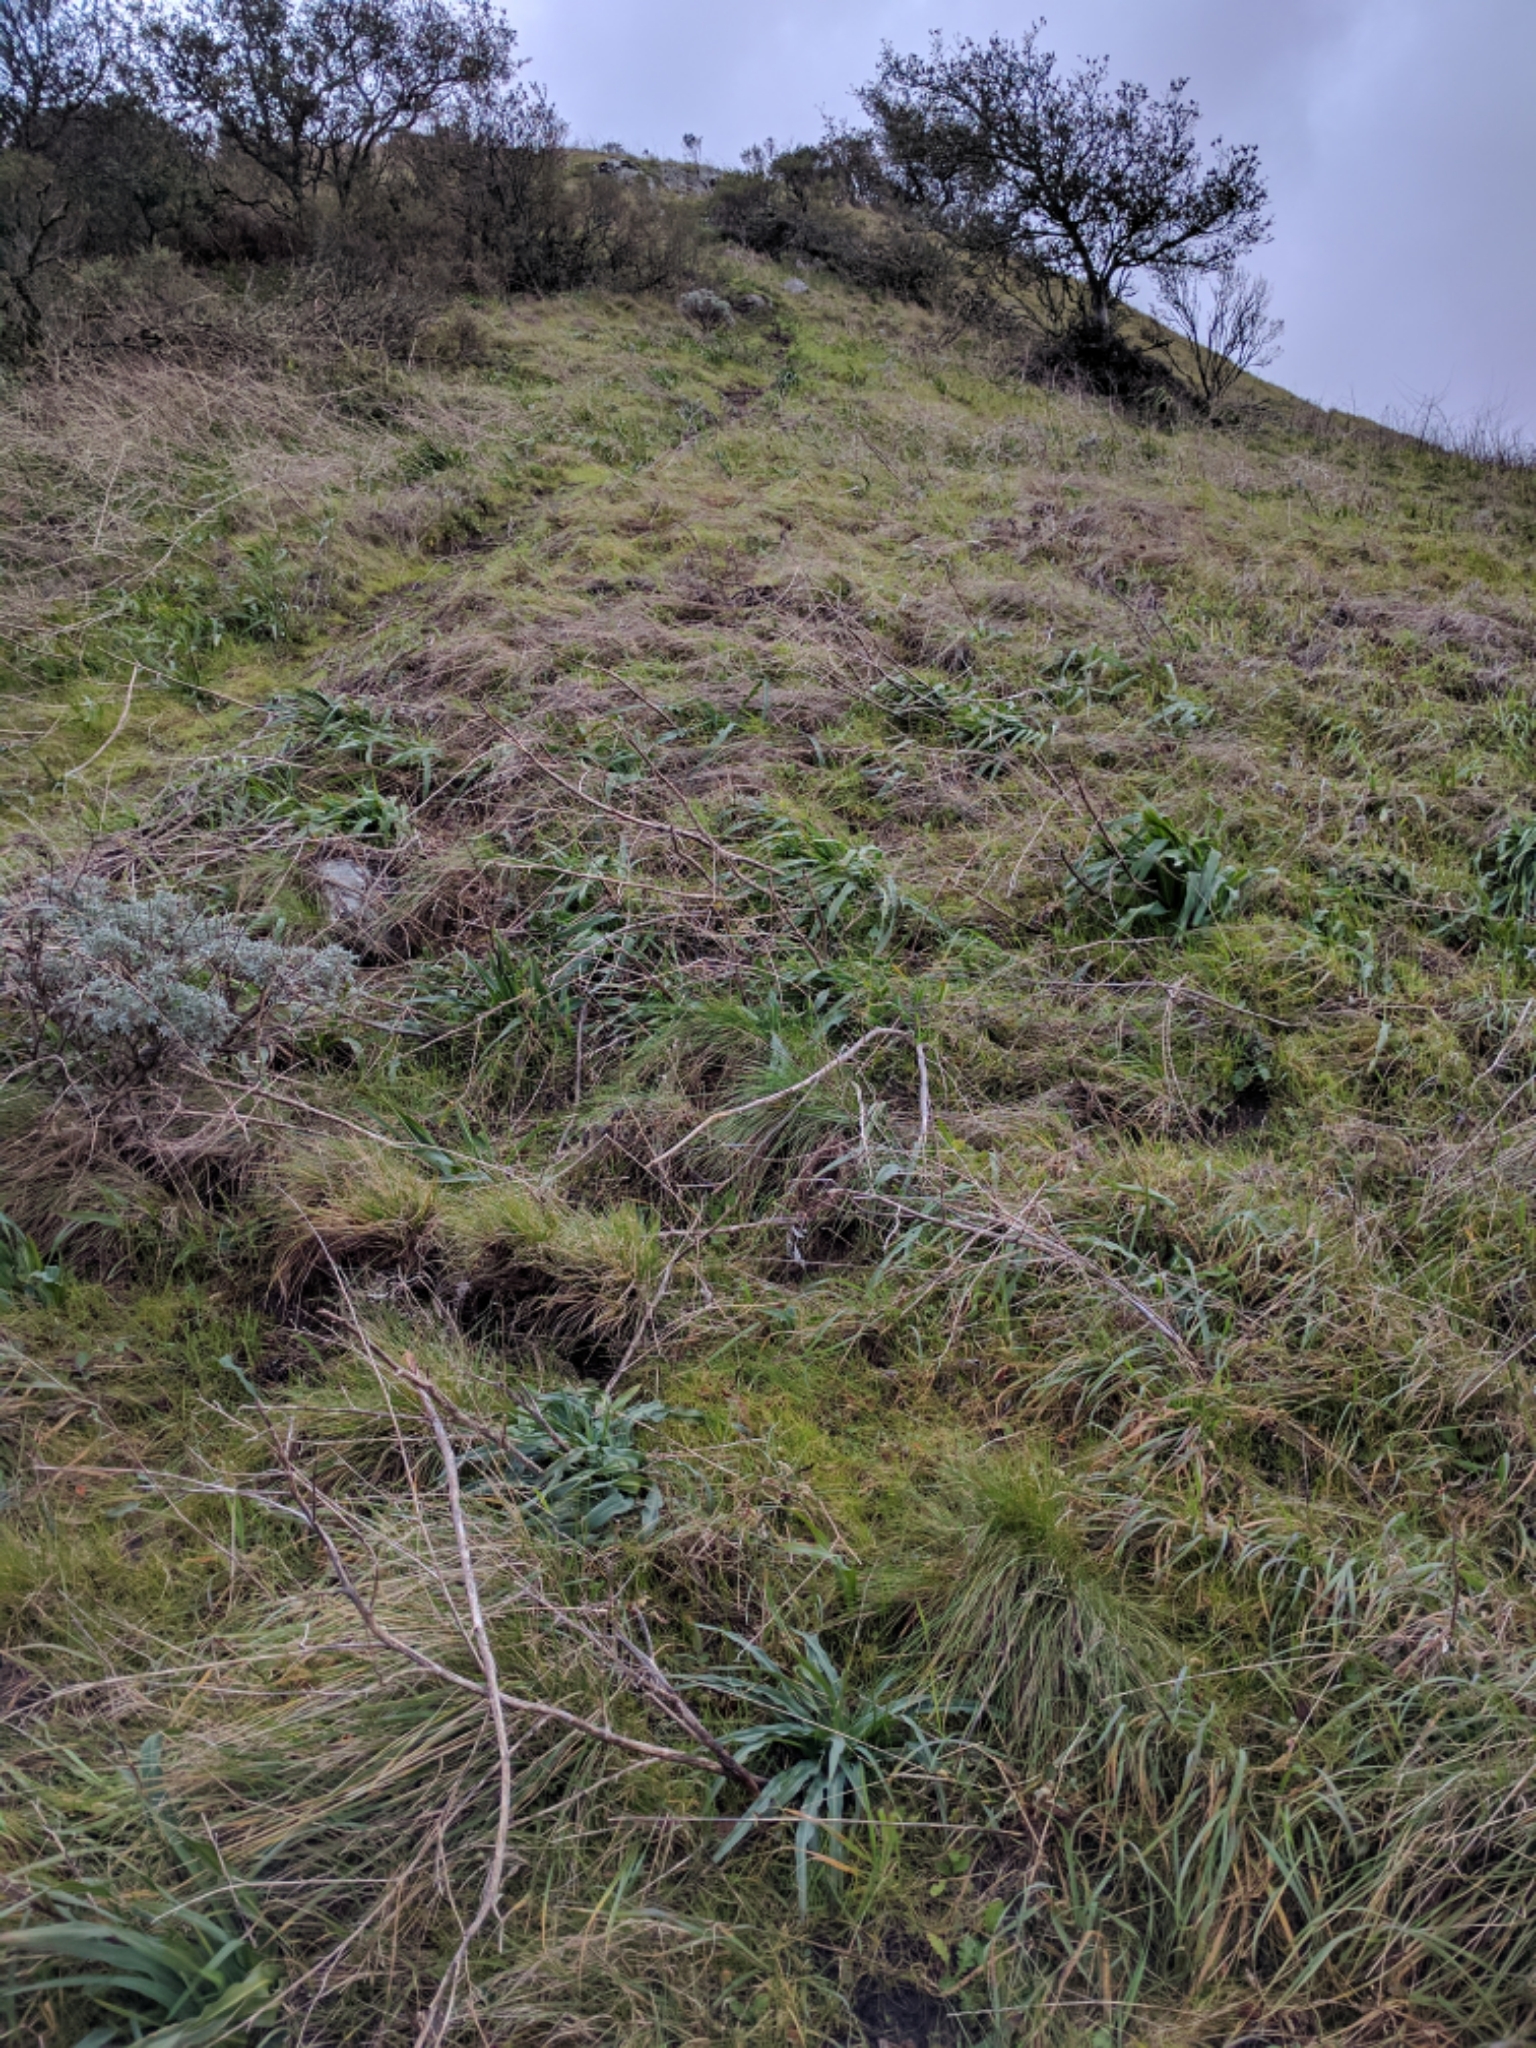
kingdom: Plantae
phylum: Tracheophyta
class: Liliopsida
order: Poales
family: Poaceae
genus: Festuca
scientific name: Festuca idahoensis
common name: Idaho fescue
